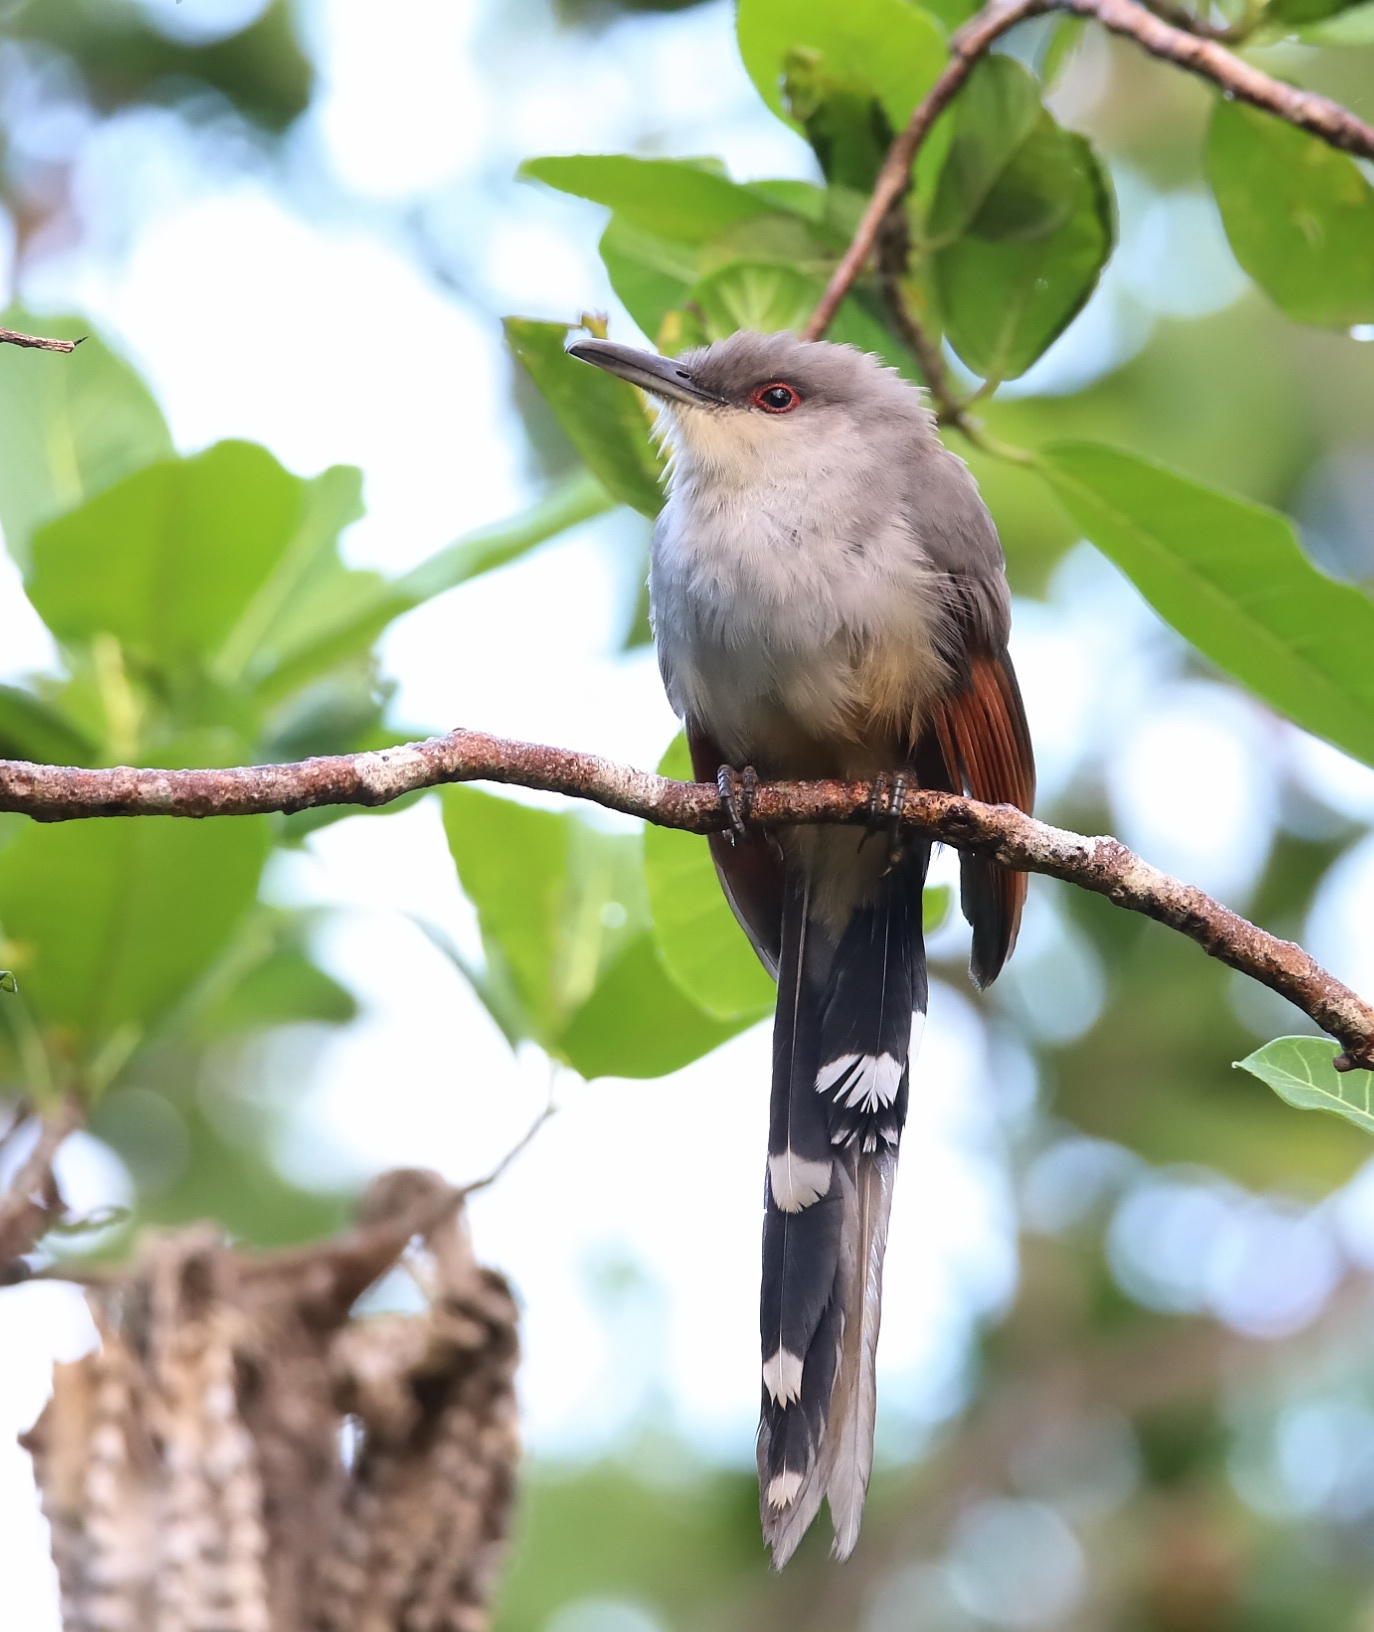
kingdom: Animalia
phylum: Chordata
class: Aves
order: Cuculiformes
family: Cuculidae
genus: Saurothera
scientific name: Saurothera longirostris
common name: Hispaniolan lizard-cuckoo
